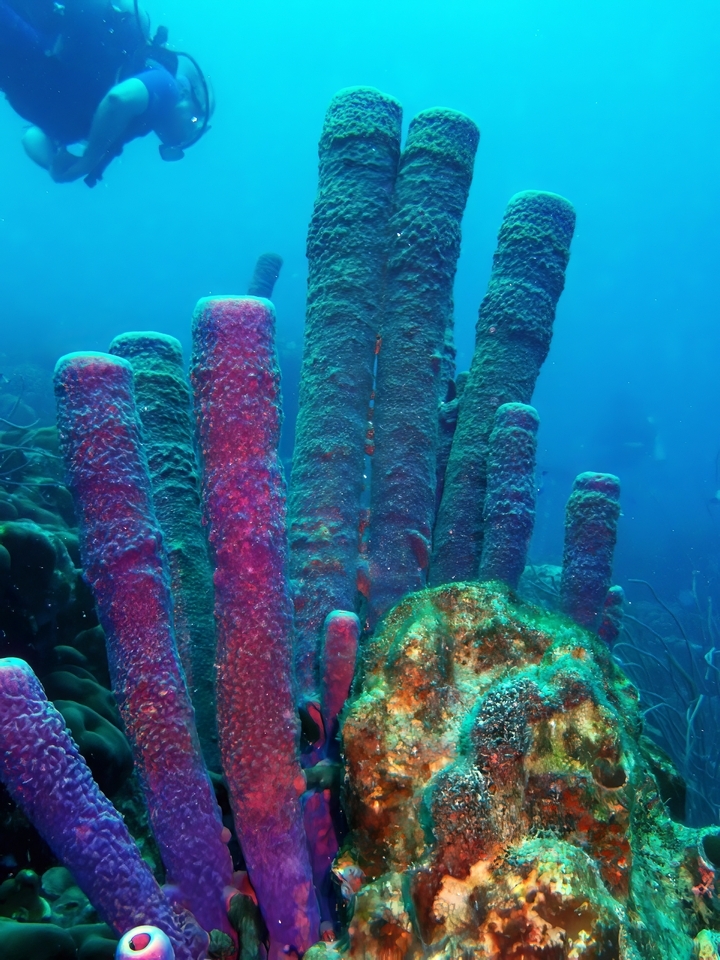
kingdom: Animalia
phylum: Porifera
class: Demospongiae
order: Verongiida
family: Aplysinidae
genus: Aplysina
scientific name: Aplysina archeri
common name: Stove-pipe sponge
